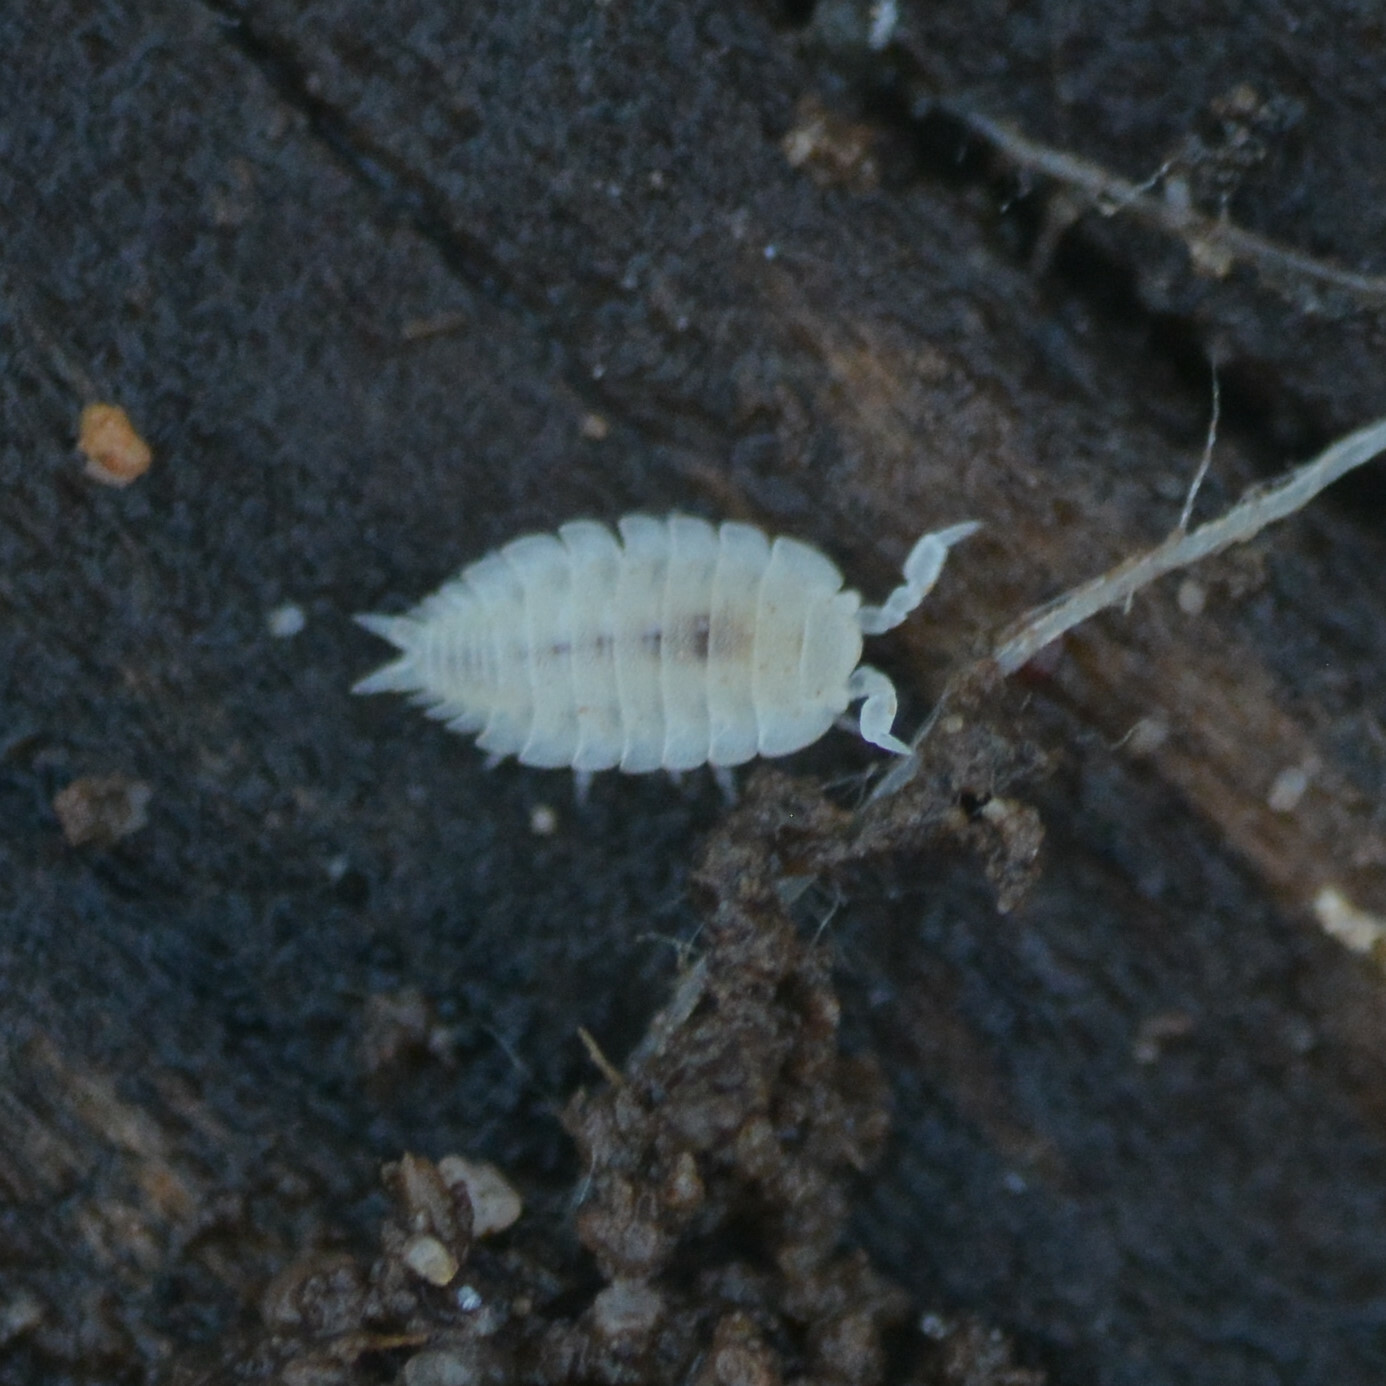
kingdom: Animalia
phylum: Arthropoda
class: Malacostraca
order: Isopoda
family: Platyarthridae
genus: Platyarthrus
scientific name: Platyarthrus hoffmannseggii
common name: Ant woodlouse
